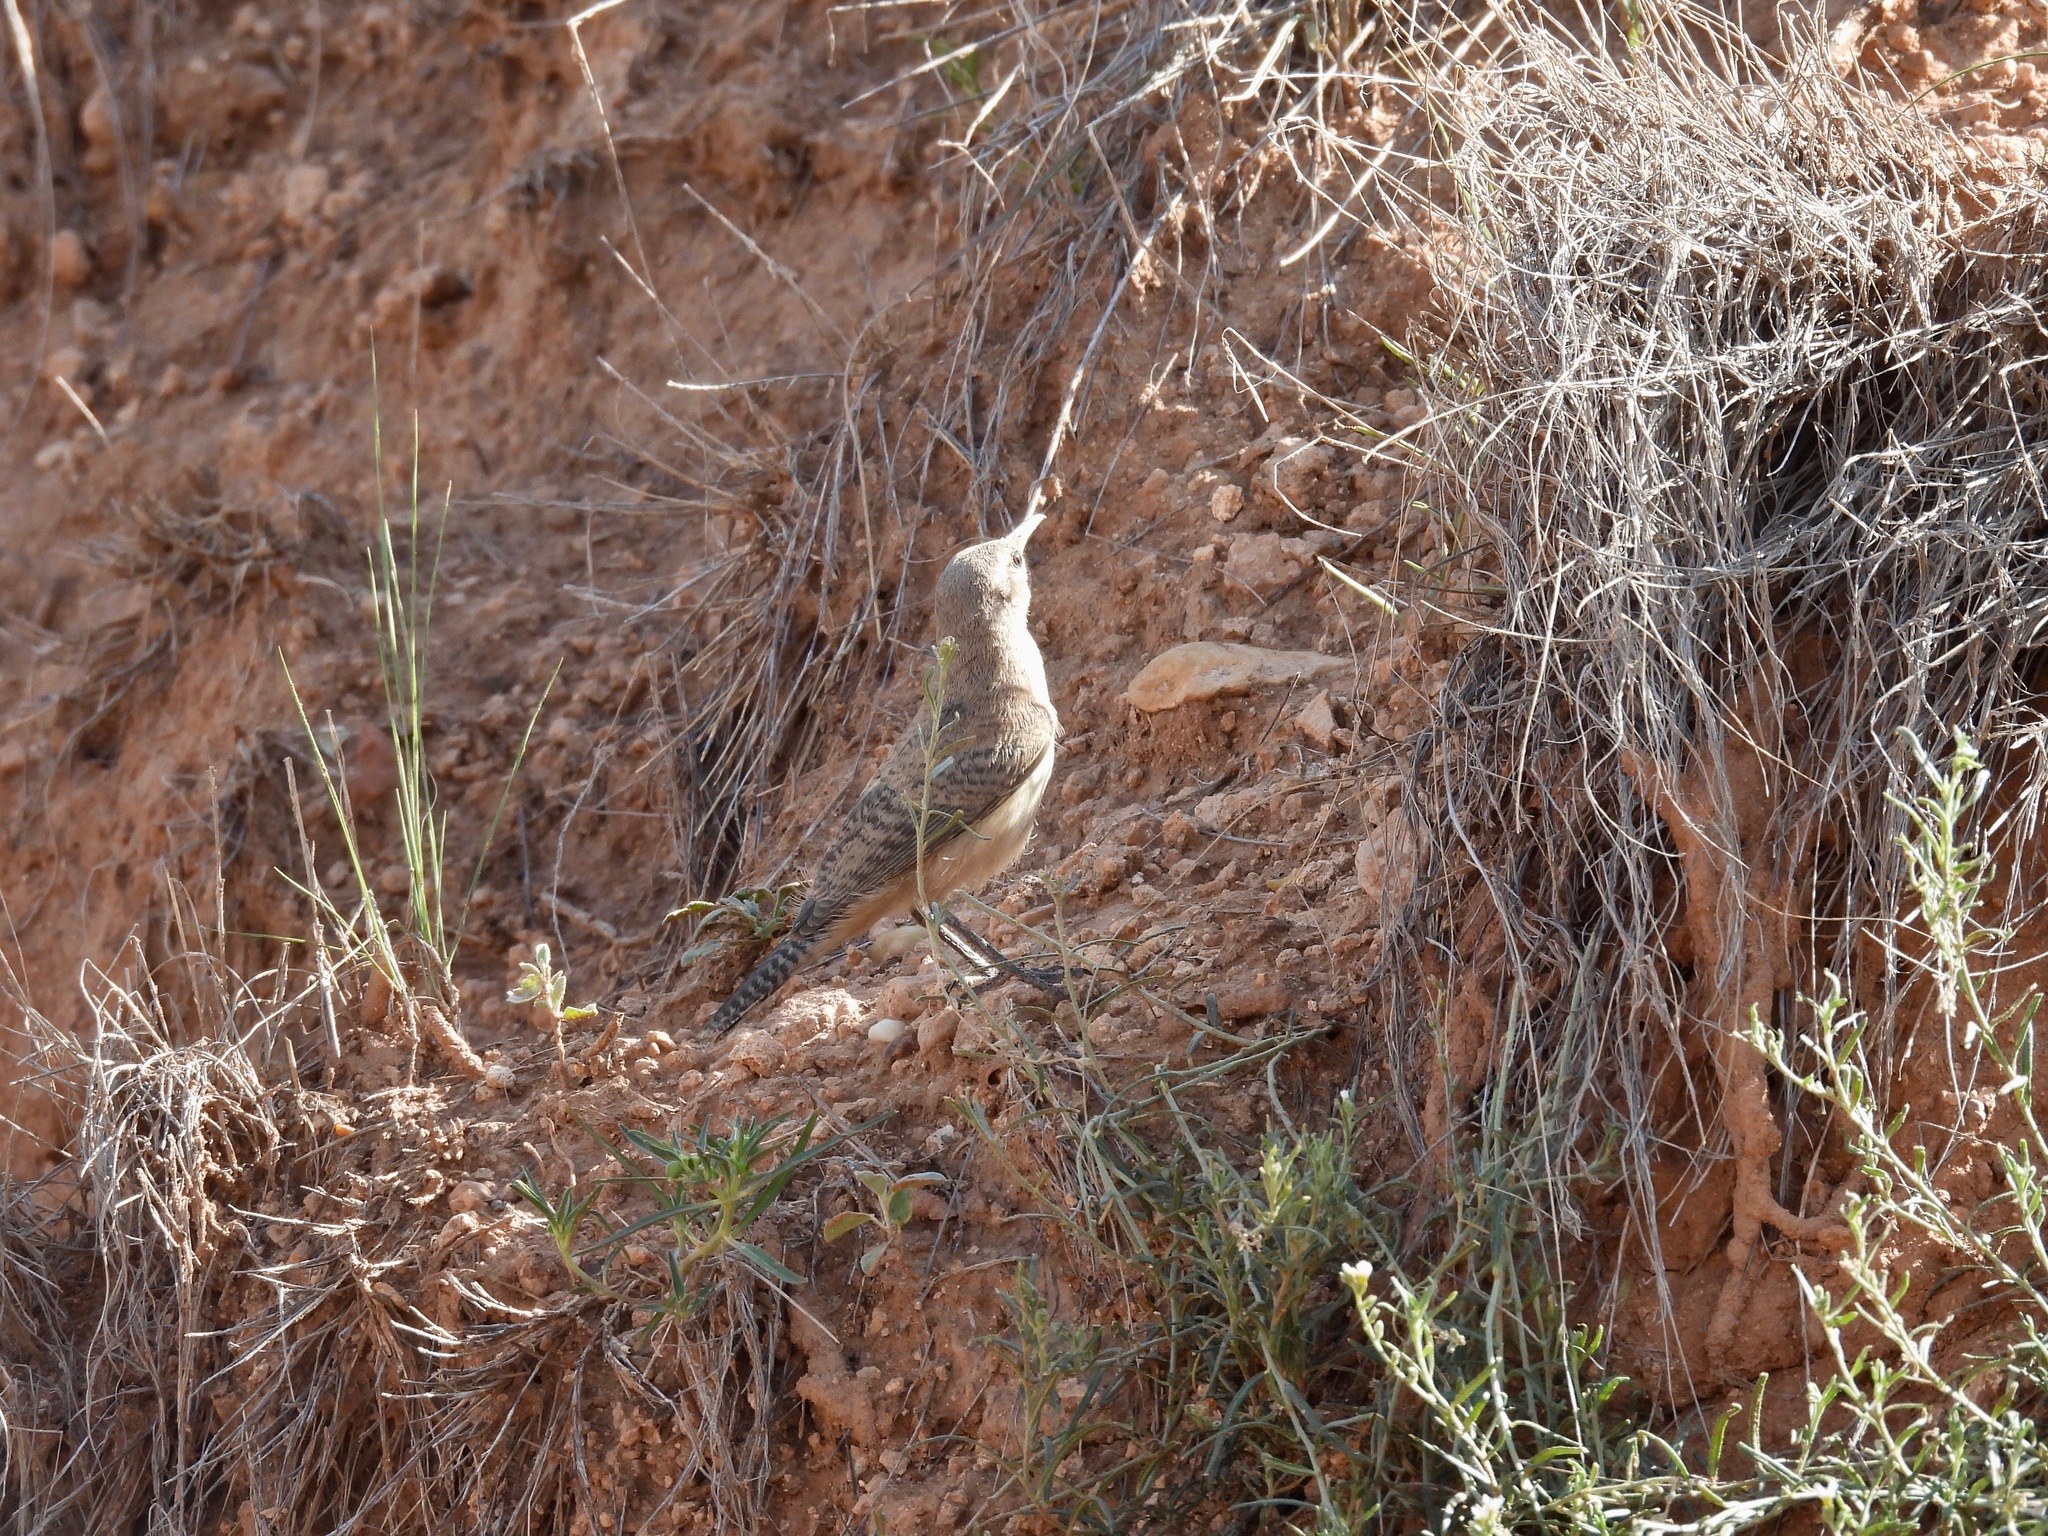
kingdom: Animalia
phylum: Chordata
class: Aves
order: Passeriformes
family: Troglodytidae
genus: Salpinctes
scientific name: Salpinctes obsoletus
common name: Rock wren
